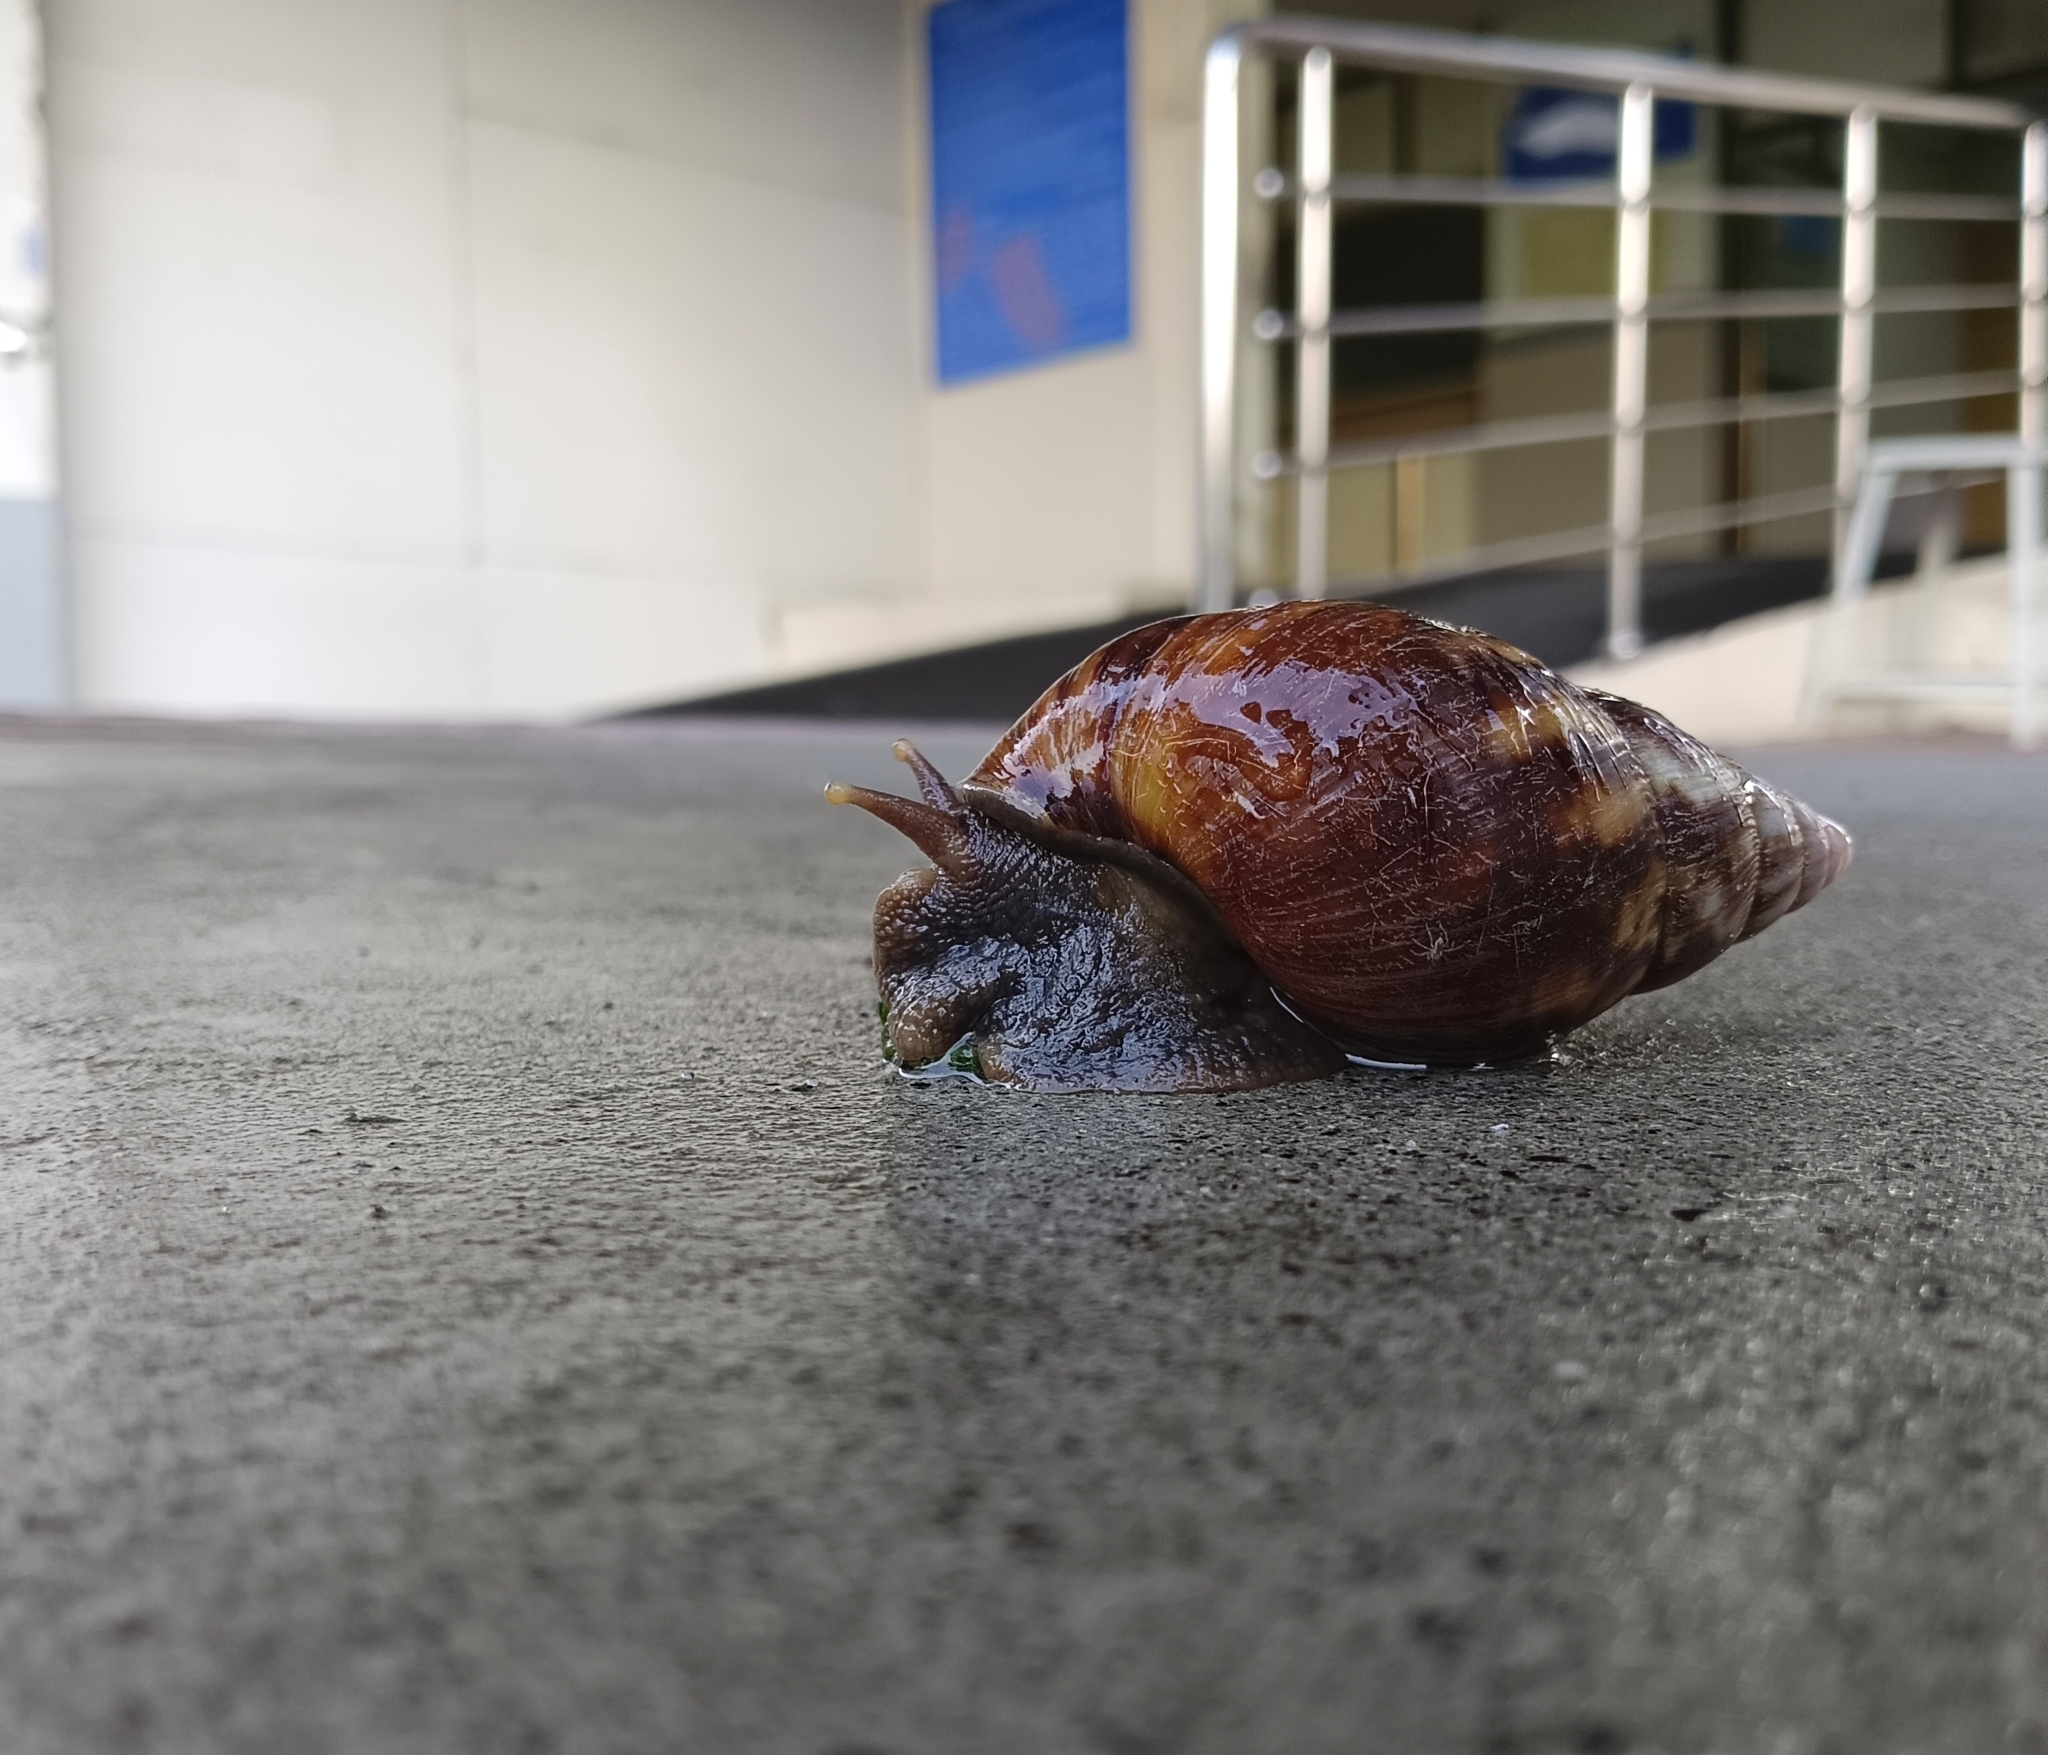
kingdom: Animalia
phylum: Mollusca
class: Gastropoda
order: Stylommatophora
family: Achatinidae
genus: Lissachatina
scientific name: Lissachatina fulica
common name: Giant african snail
